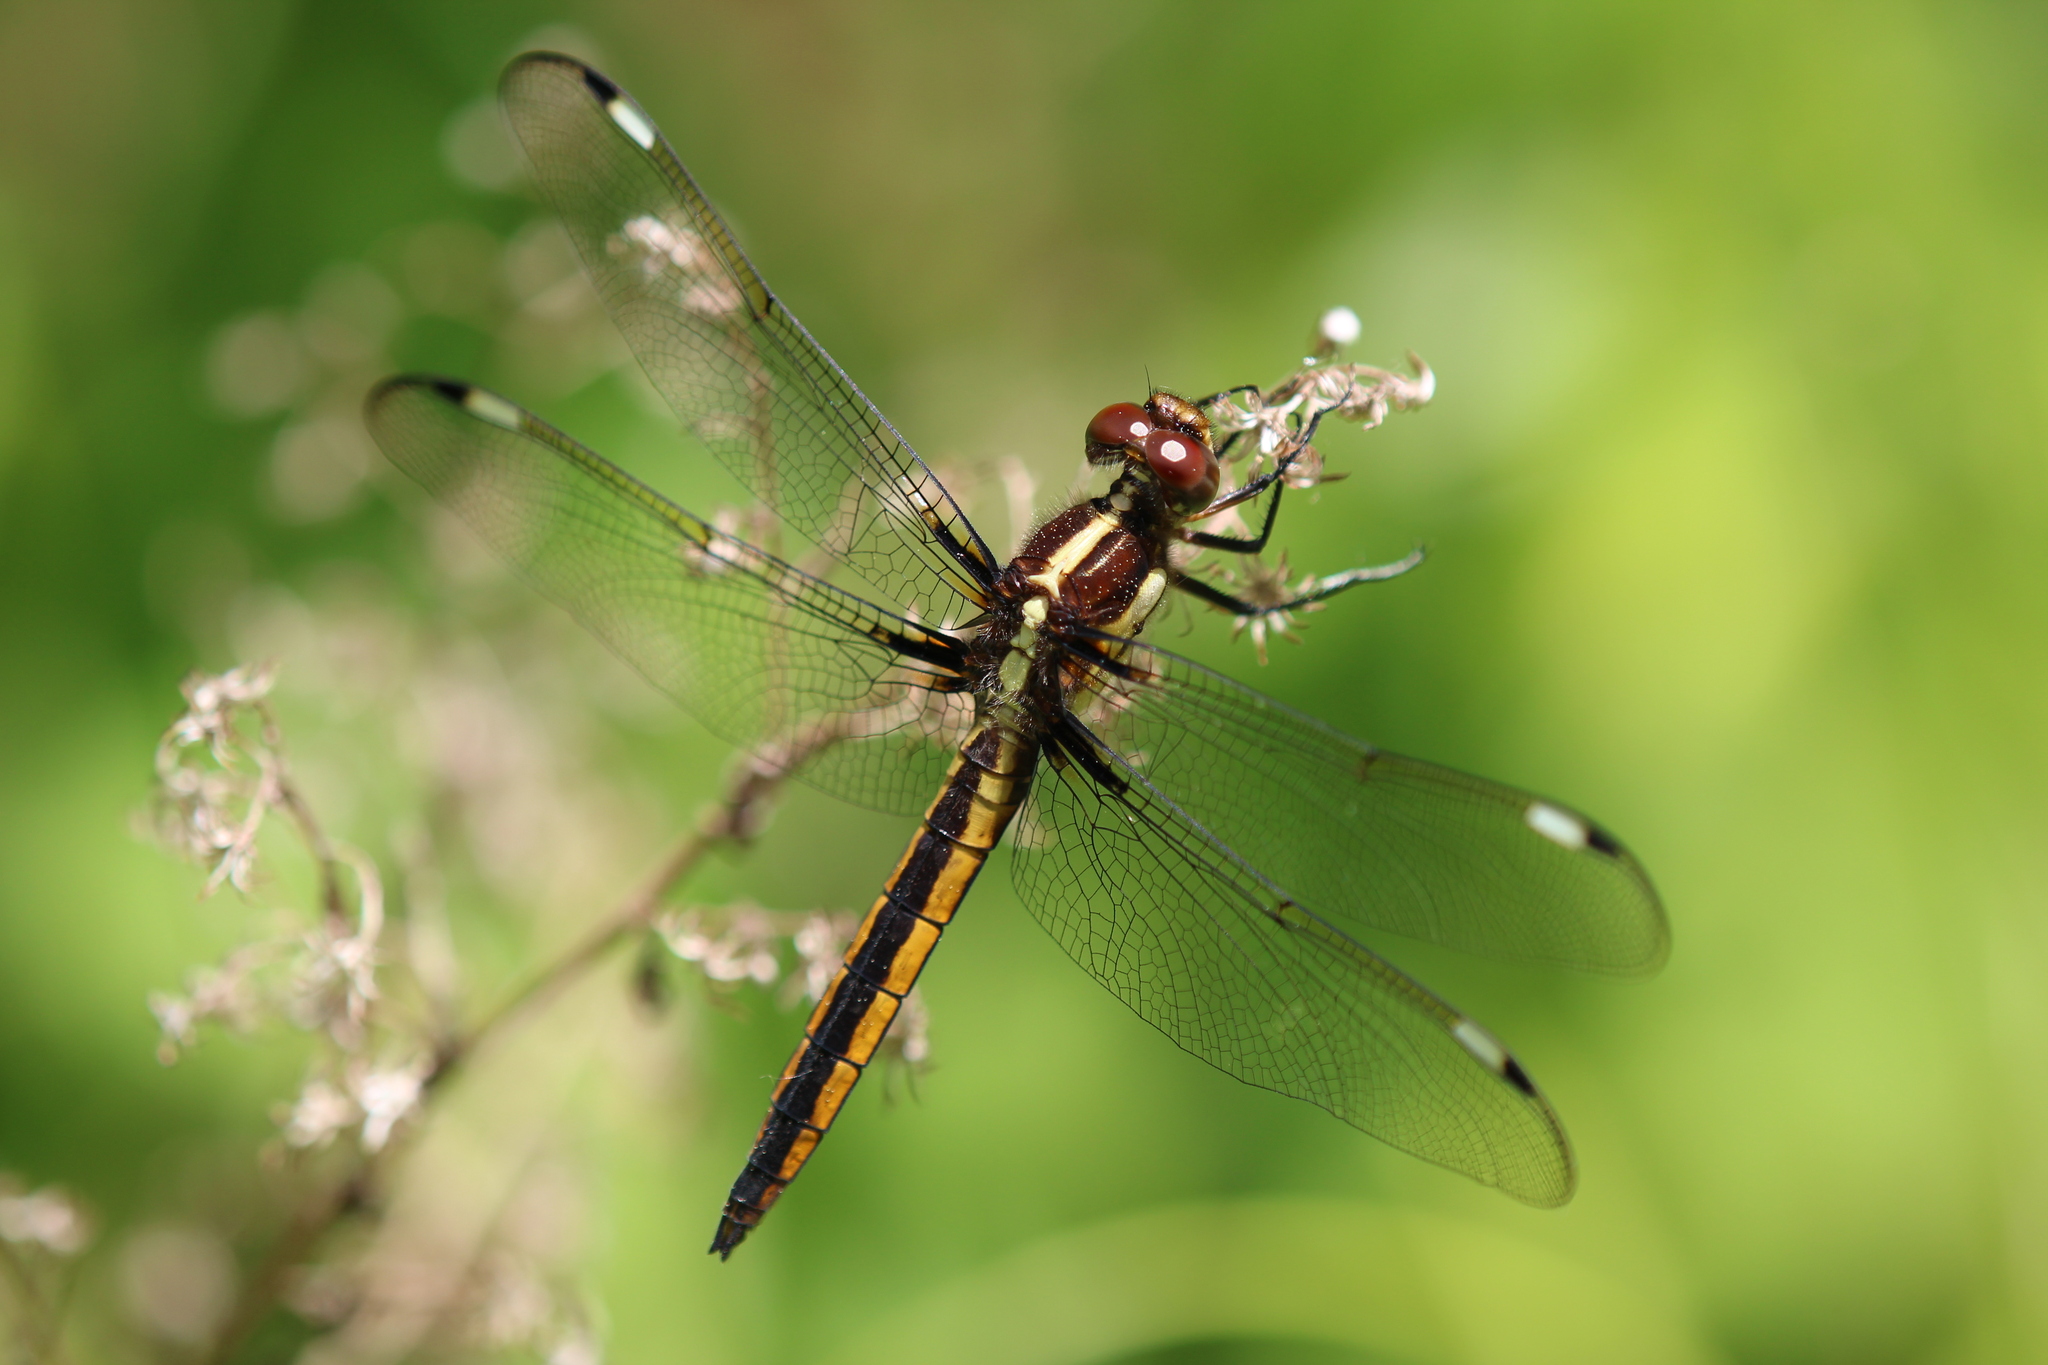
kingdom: Animalia
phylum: Arthropoda
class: Insecta
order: Odonata
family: Libellulidae
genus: Libellula
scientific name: Libellula cyanea
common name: Spangled skimmer
